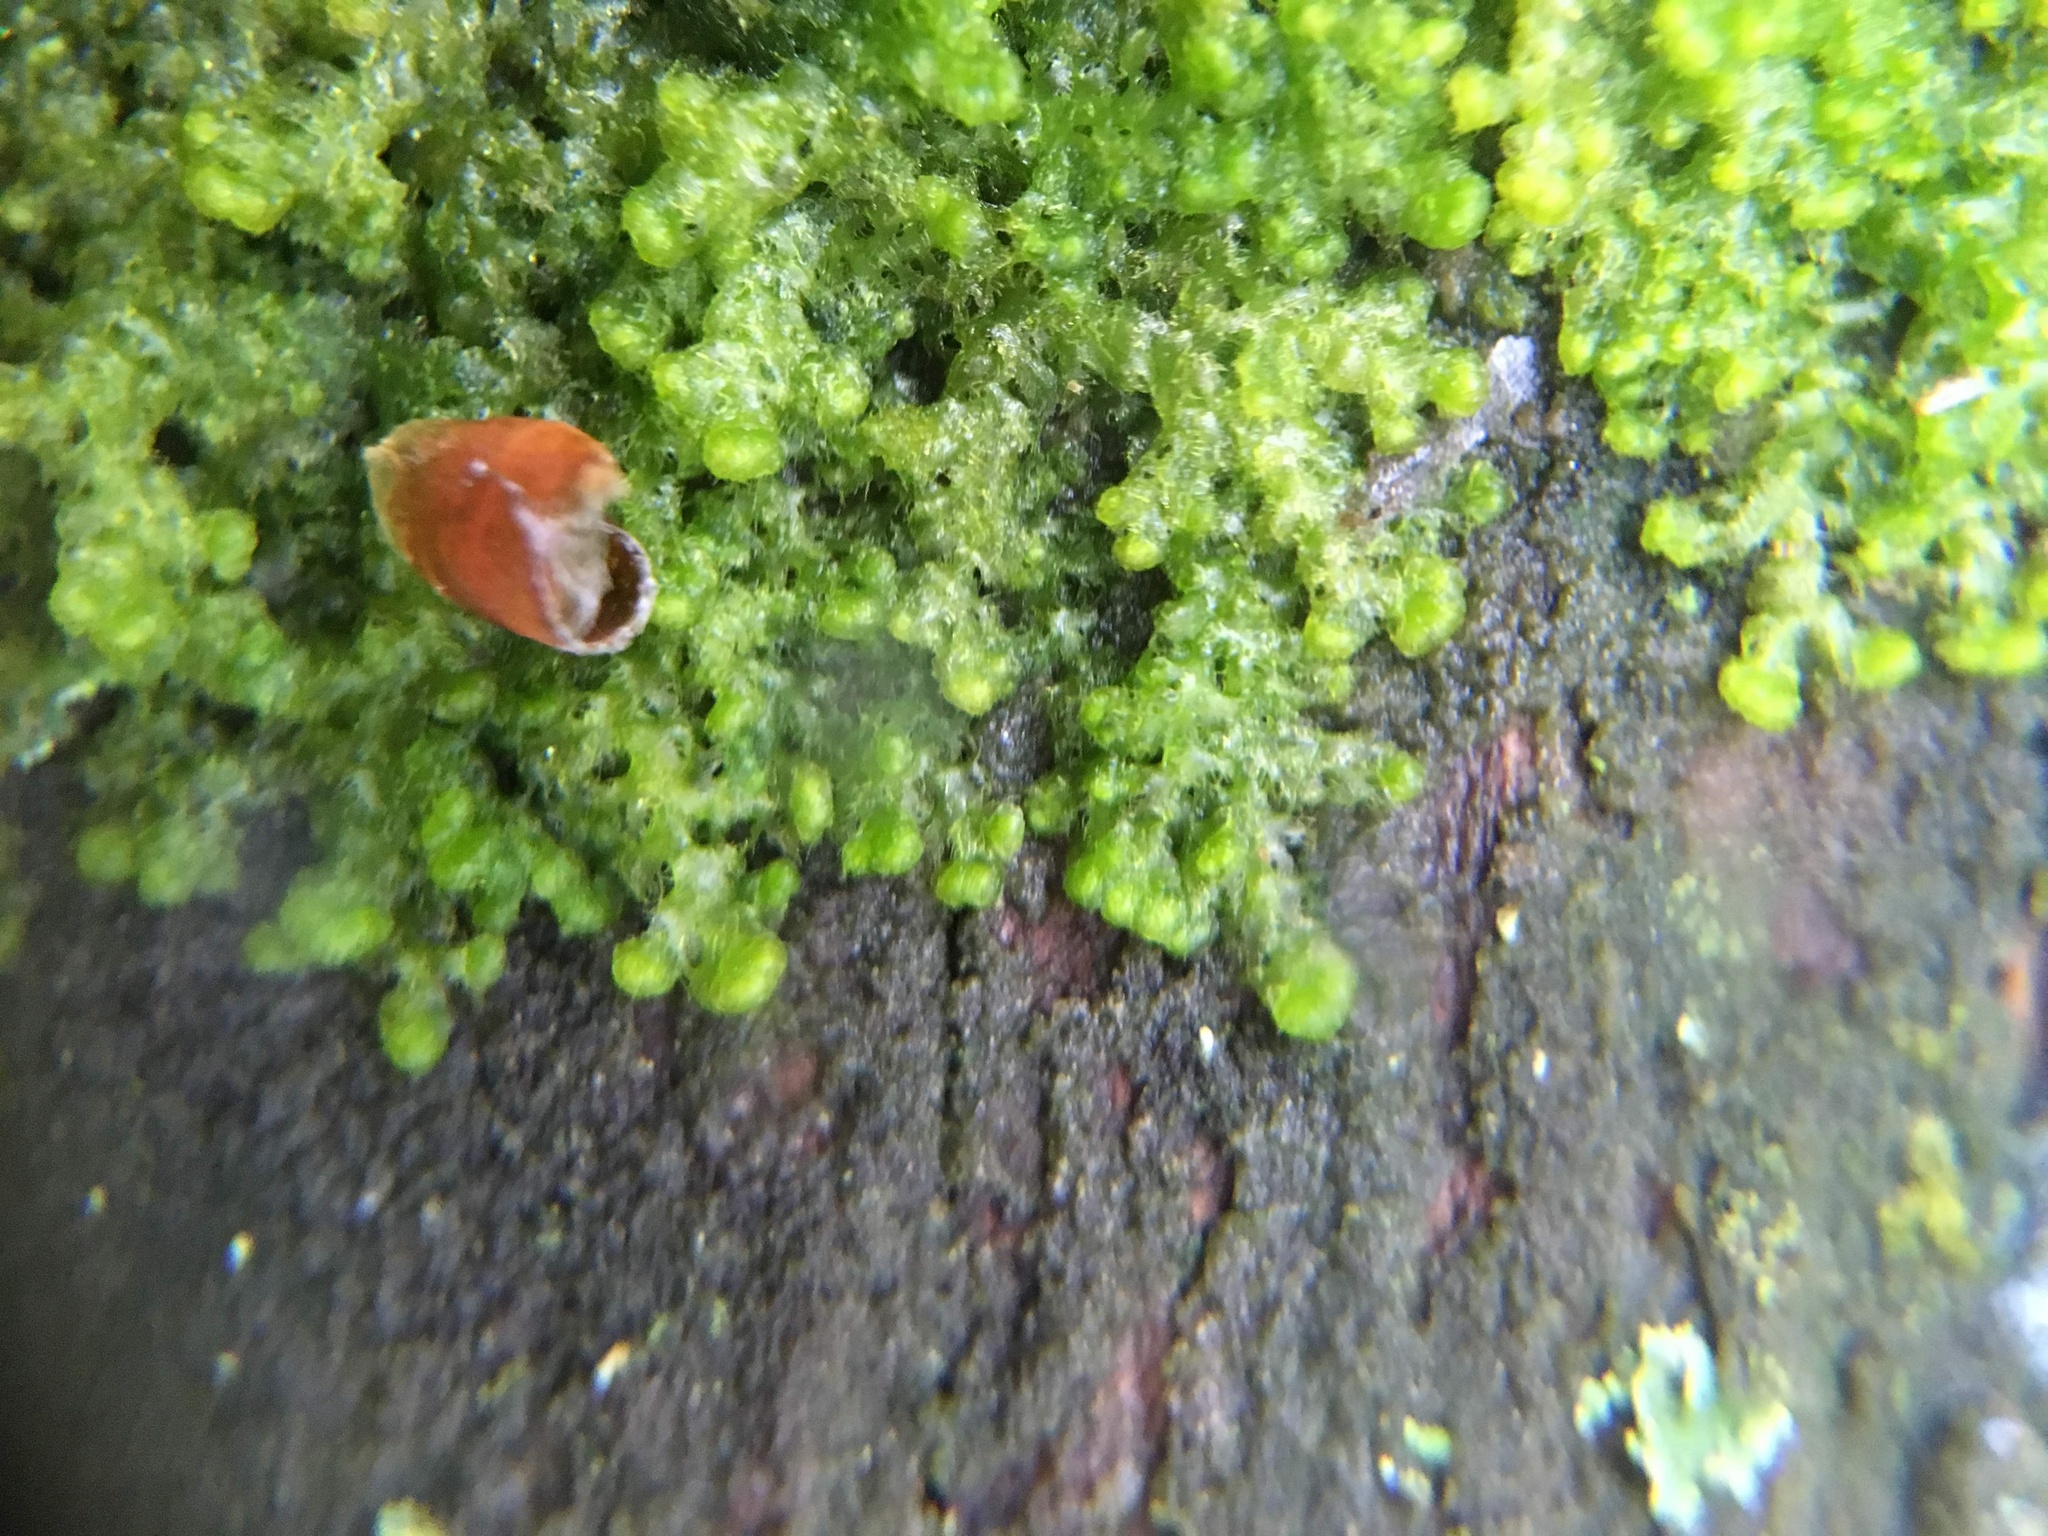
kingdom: Plantae
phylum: Marchantiophyta
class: Jungermanniopsida
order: Ptilidiales
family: Ptilidiaceae
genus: Ptilidium
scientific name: Ptilidium pulcherrimum
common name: Tree fringewort
